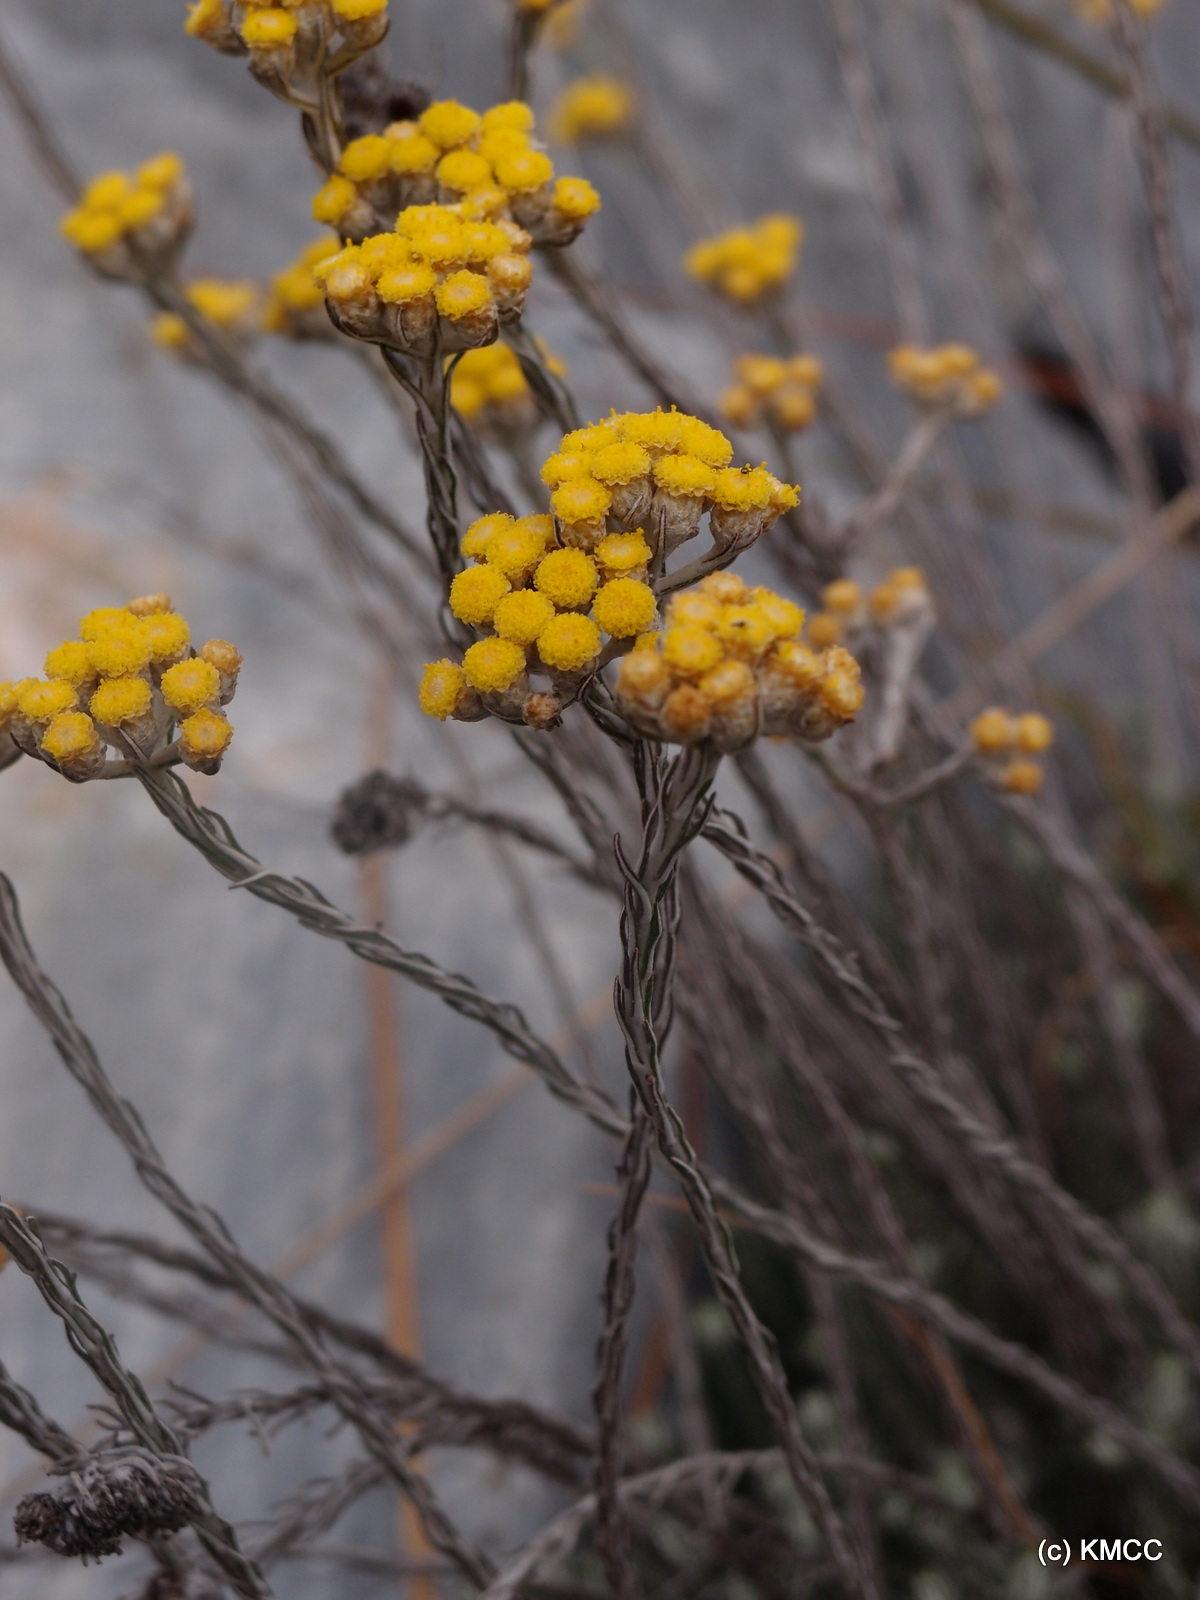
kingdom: Plantae
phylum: Tracheophyta
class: Magnoliopsida
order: Asterales
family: Asteraceae
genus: Helichrysum
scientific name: Helichrysum lecomtei
